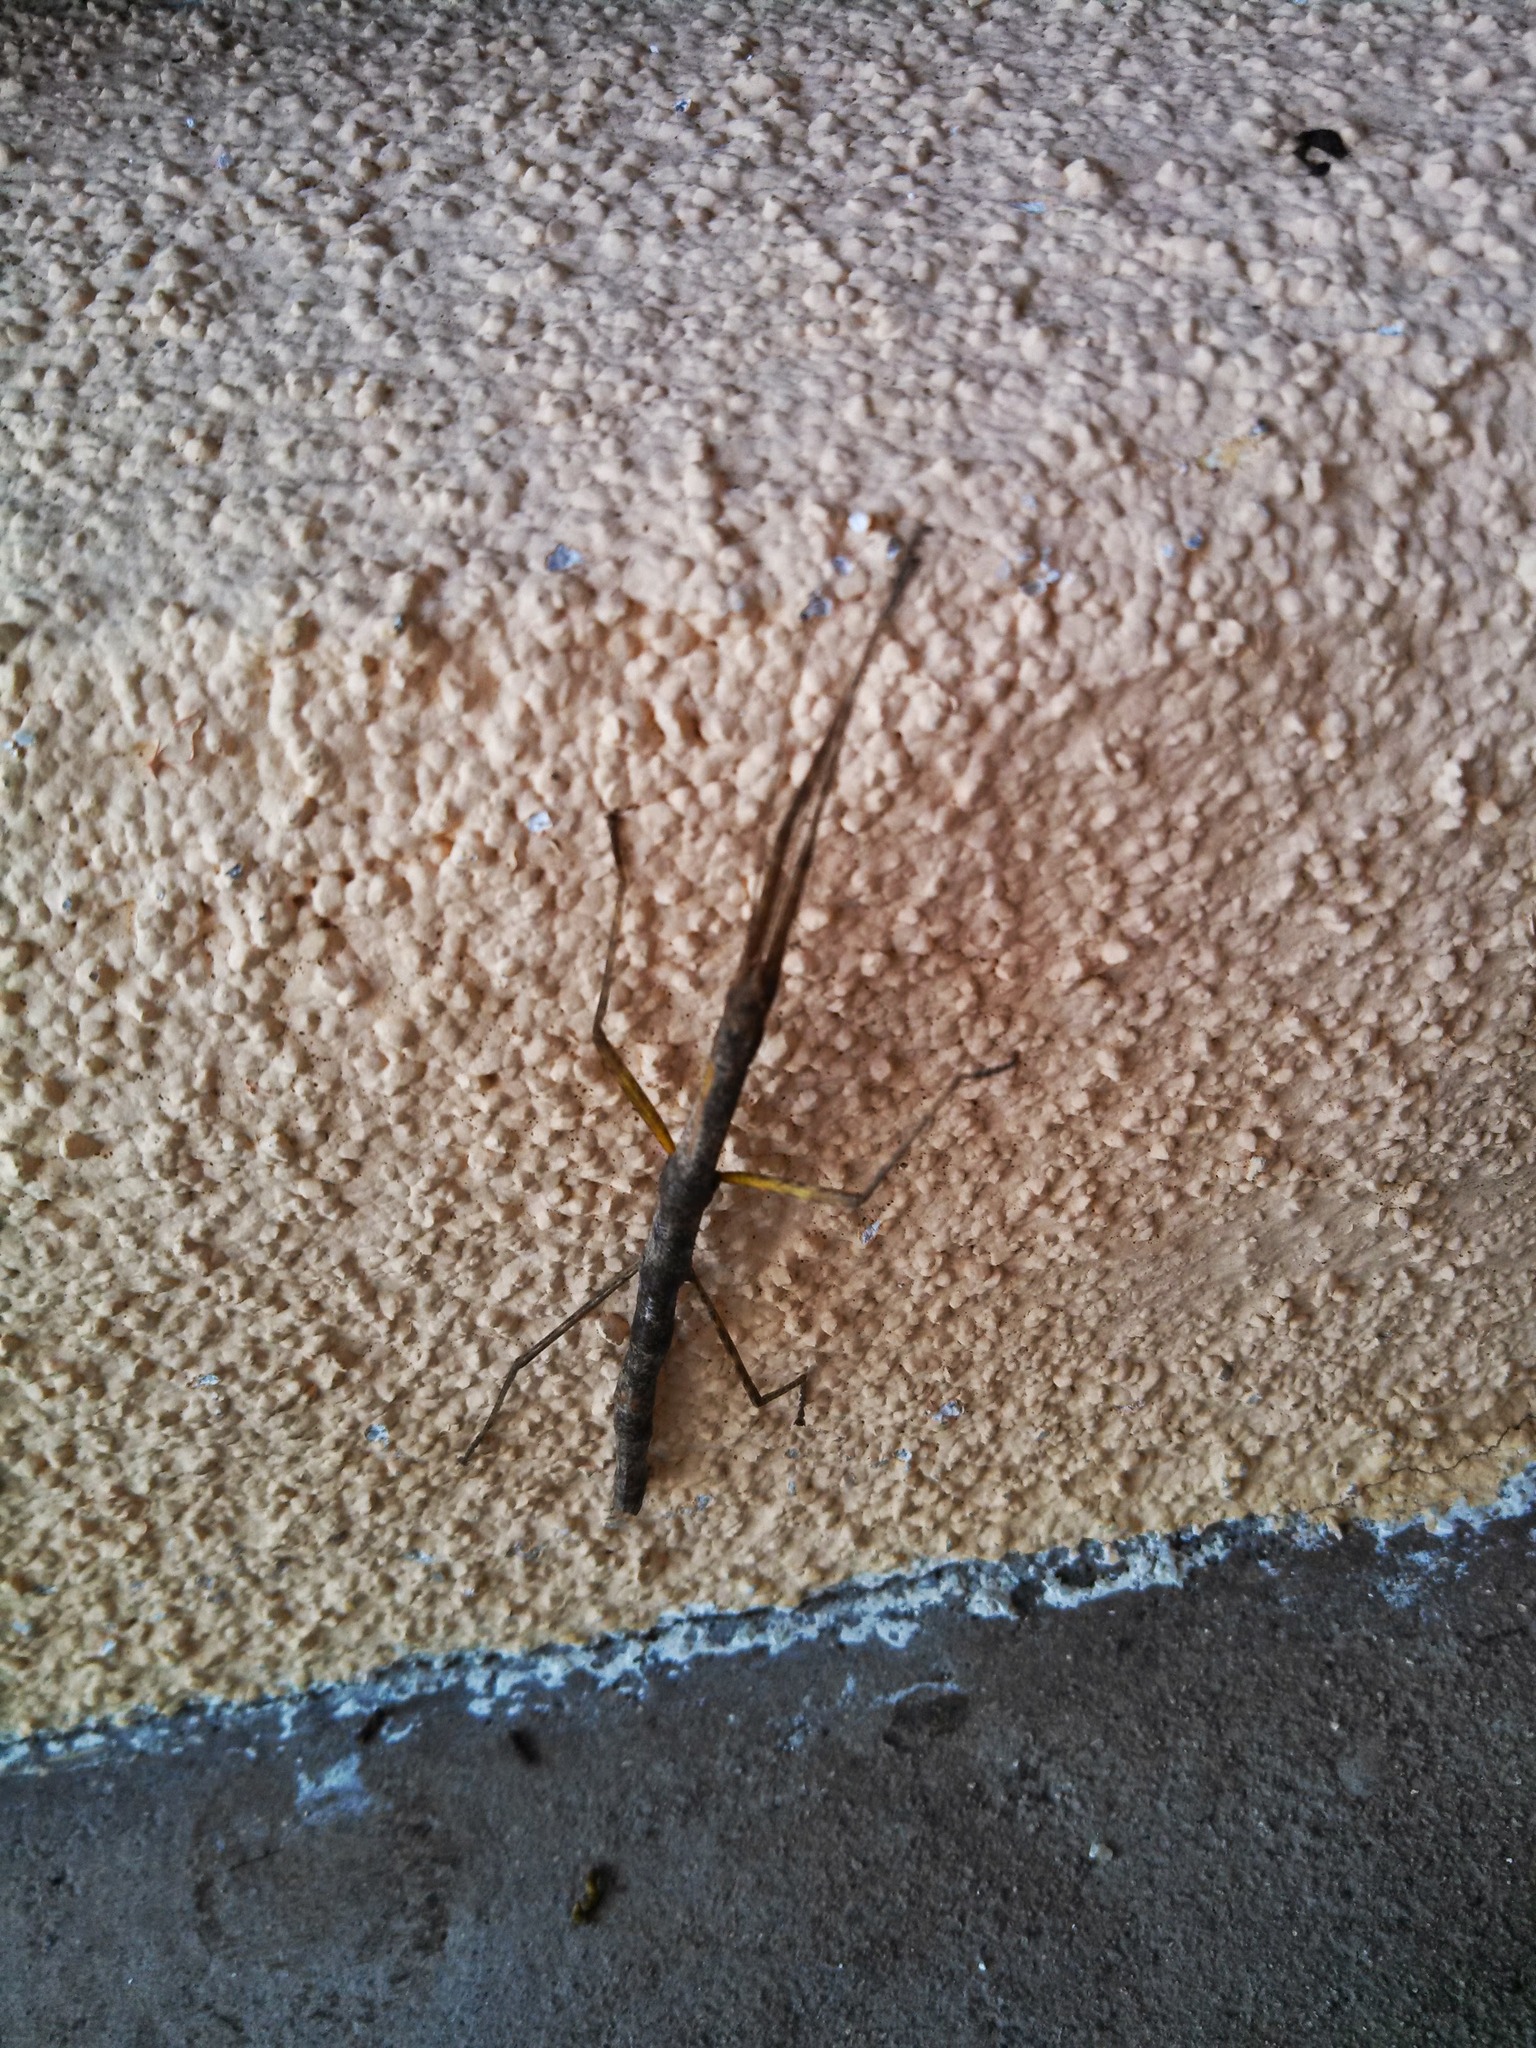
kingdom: Animalia
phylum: Arthropoda
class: Insecta
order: Phasmida
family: Lonchodidae
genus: Carausius
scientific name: Carausius morosus
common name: Indian stick insect
